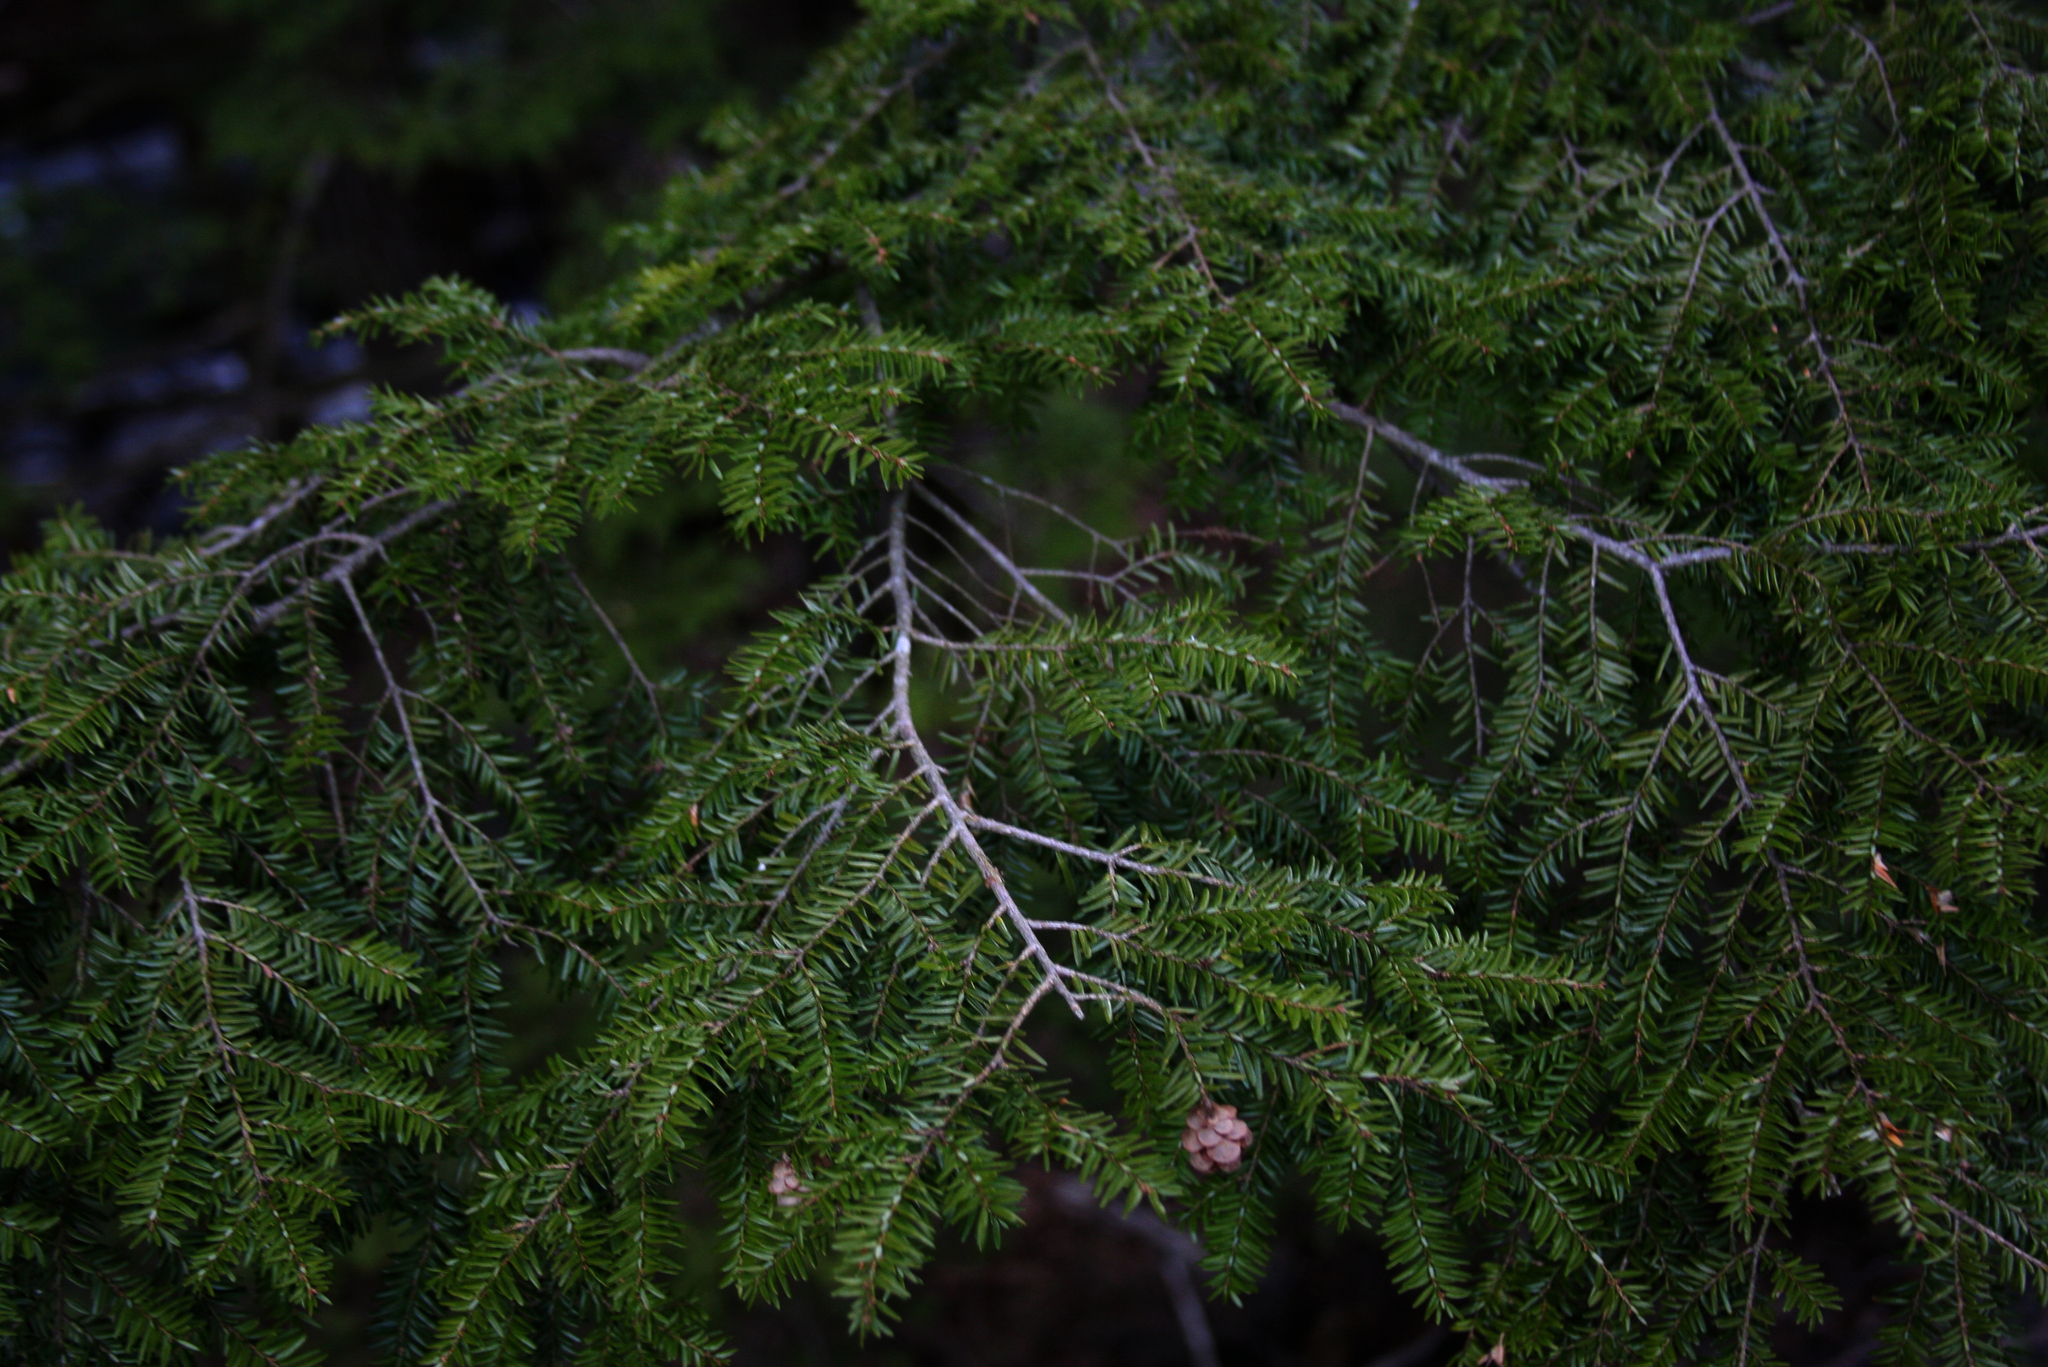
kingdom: Plantae
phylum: Tracheophyta
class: Pinopsida
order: Pinales
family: Pinaceae
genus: Tsuga
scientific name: Tsuga canadensis
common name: Eastern hemlock
